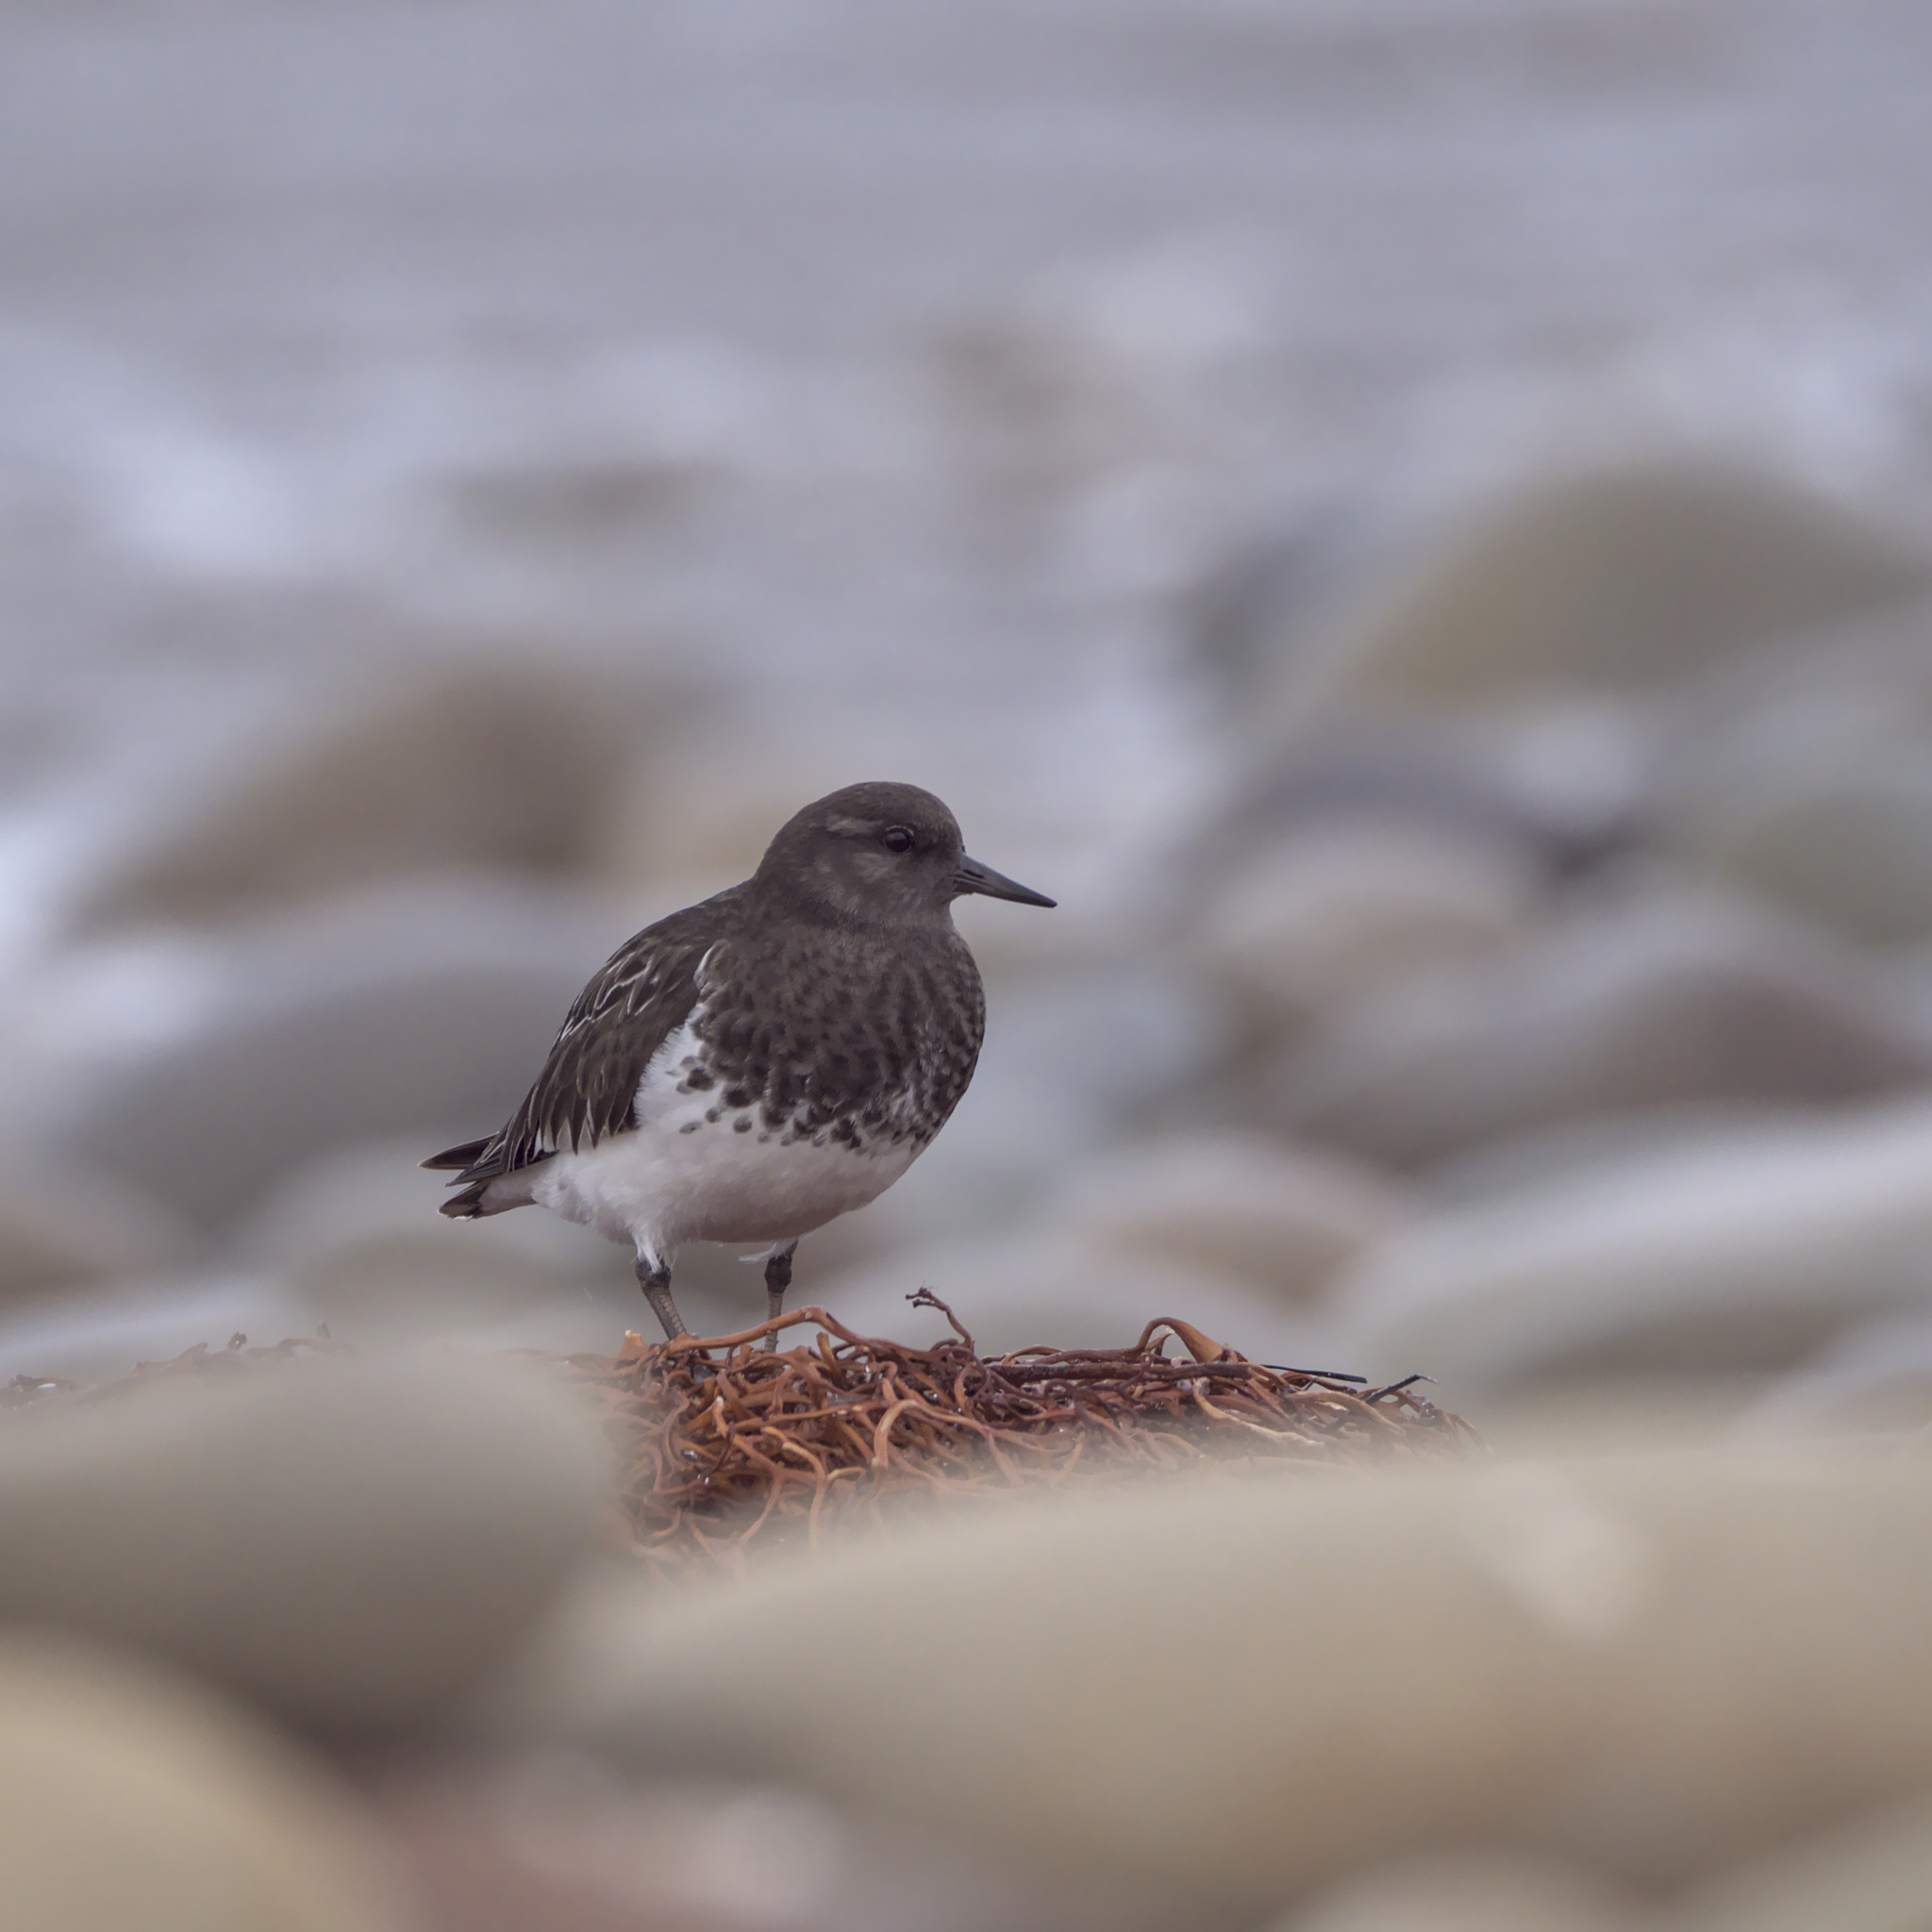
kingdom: Animalia
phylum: Chordata
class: Aves
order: Charadriiformes
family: Scolopacidae
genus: Arenaria
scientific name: Arenaria melanocephala
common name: Black turnstone
